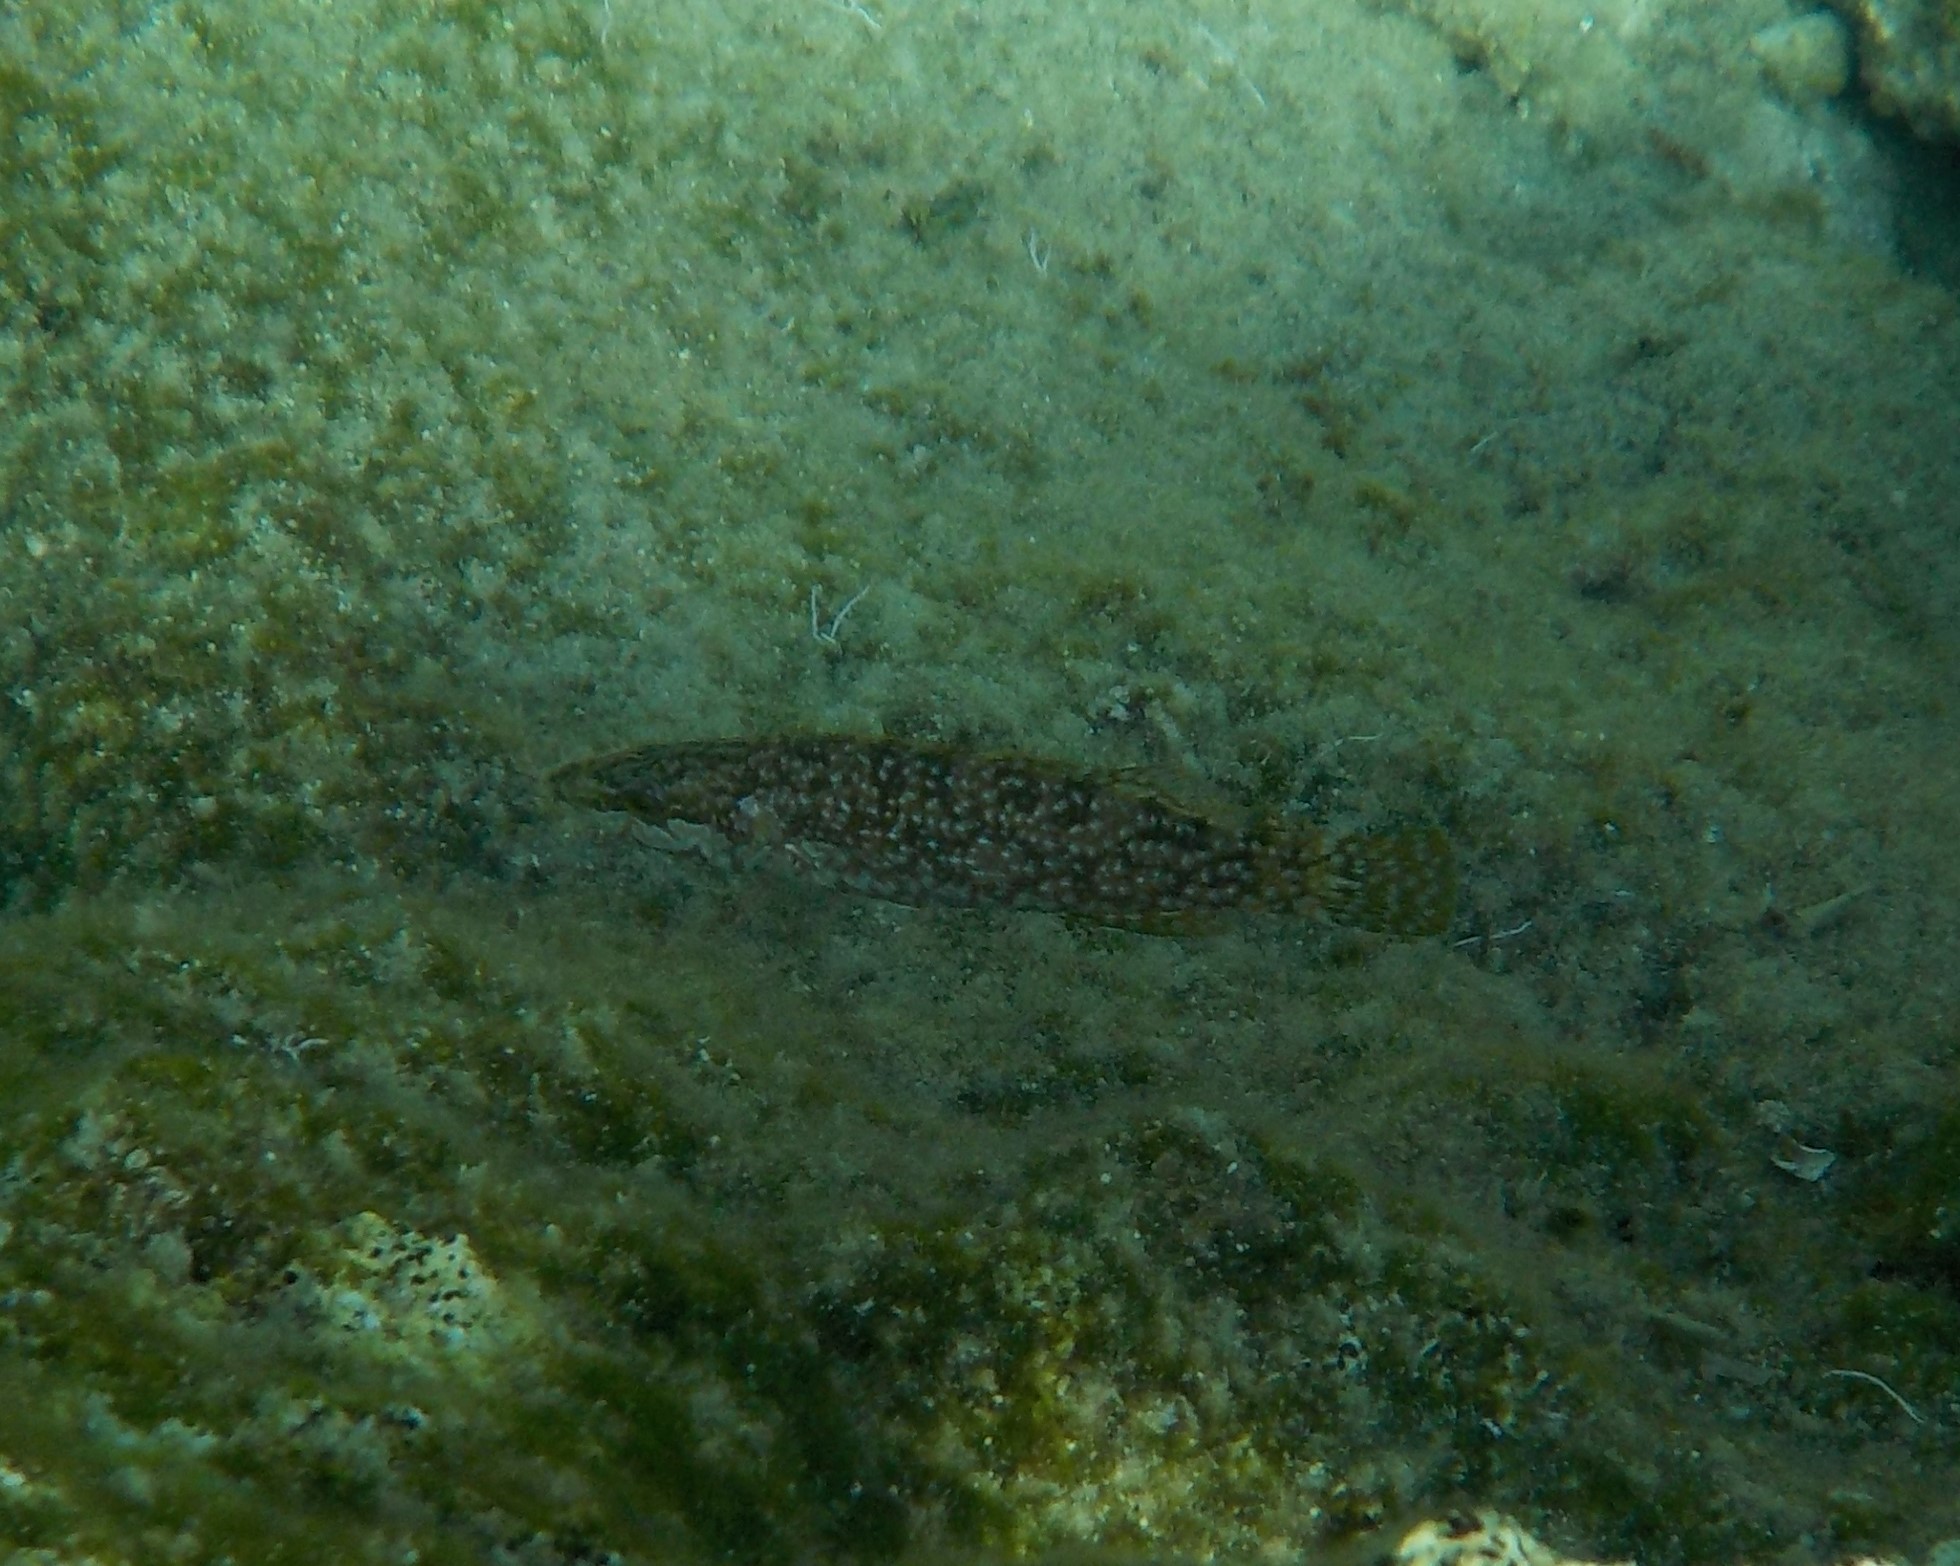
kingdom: Animalia
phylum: Chordata
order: Perciformes
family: Labridae
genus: Labrus
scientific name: Labrus viridis
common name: Green wrasse
